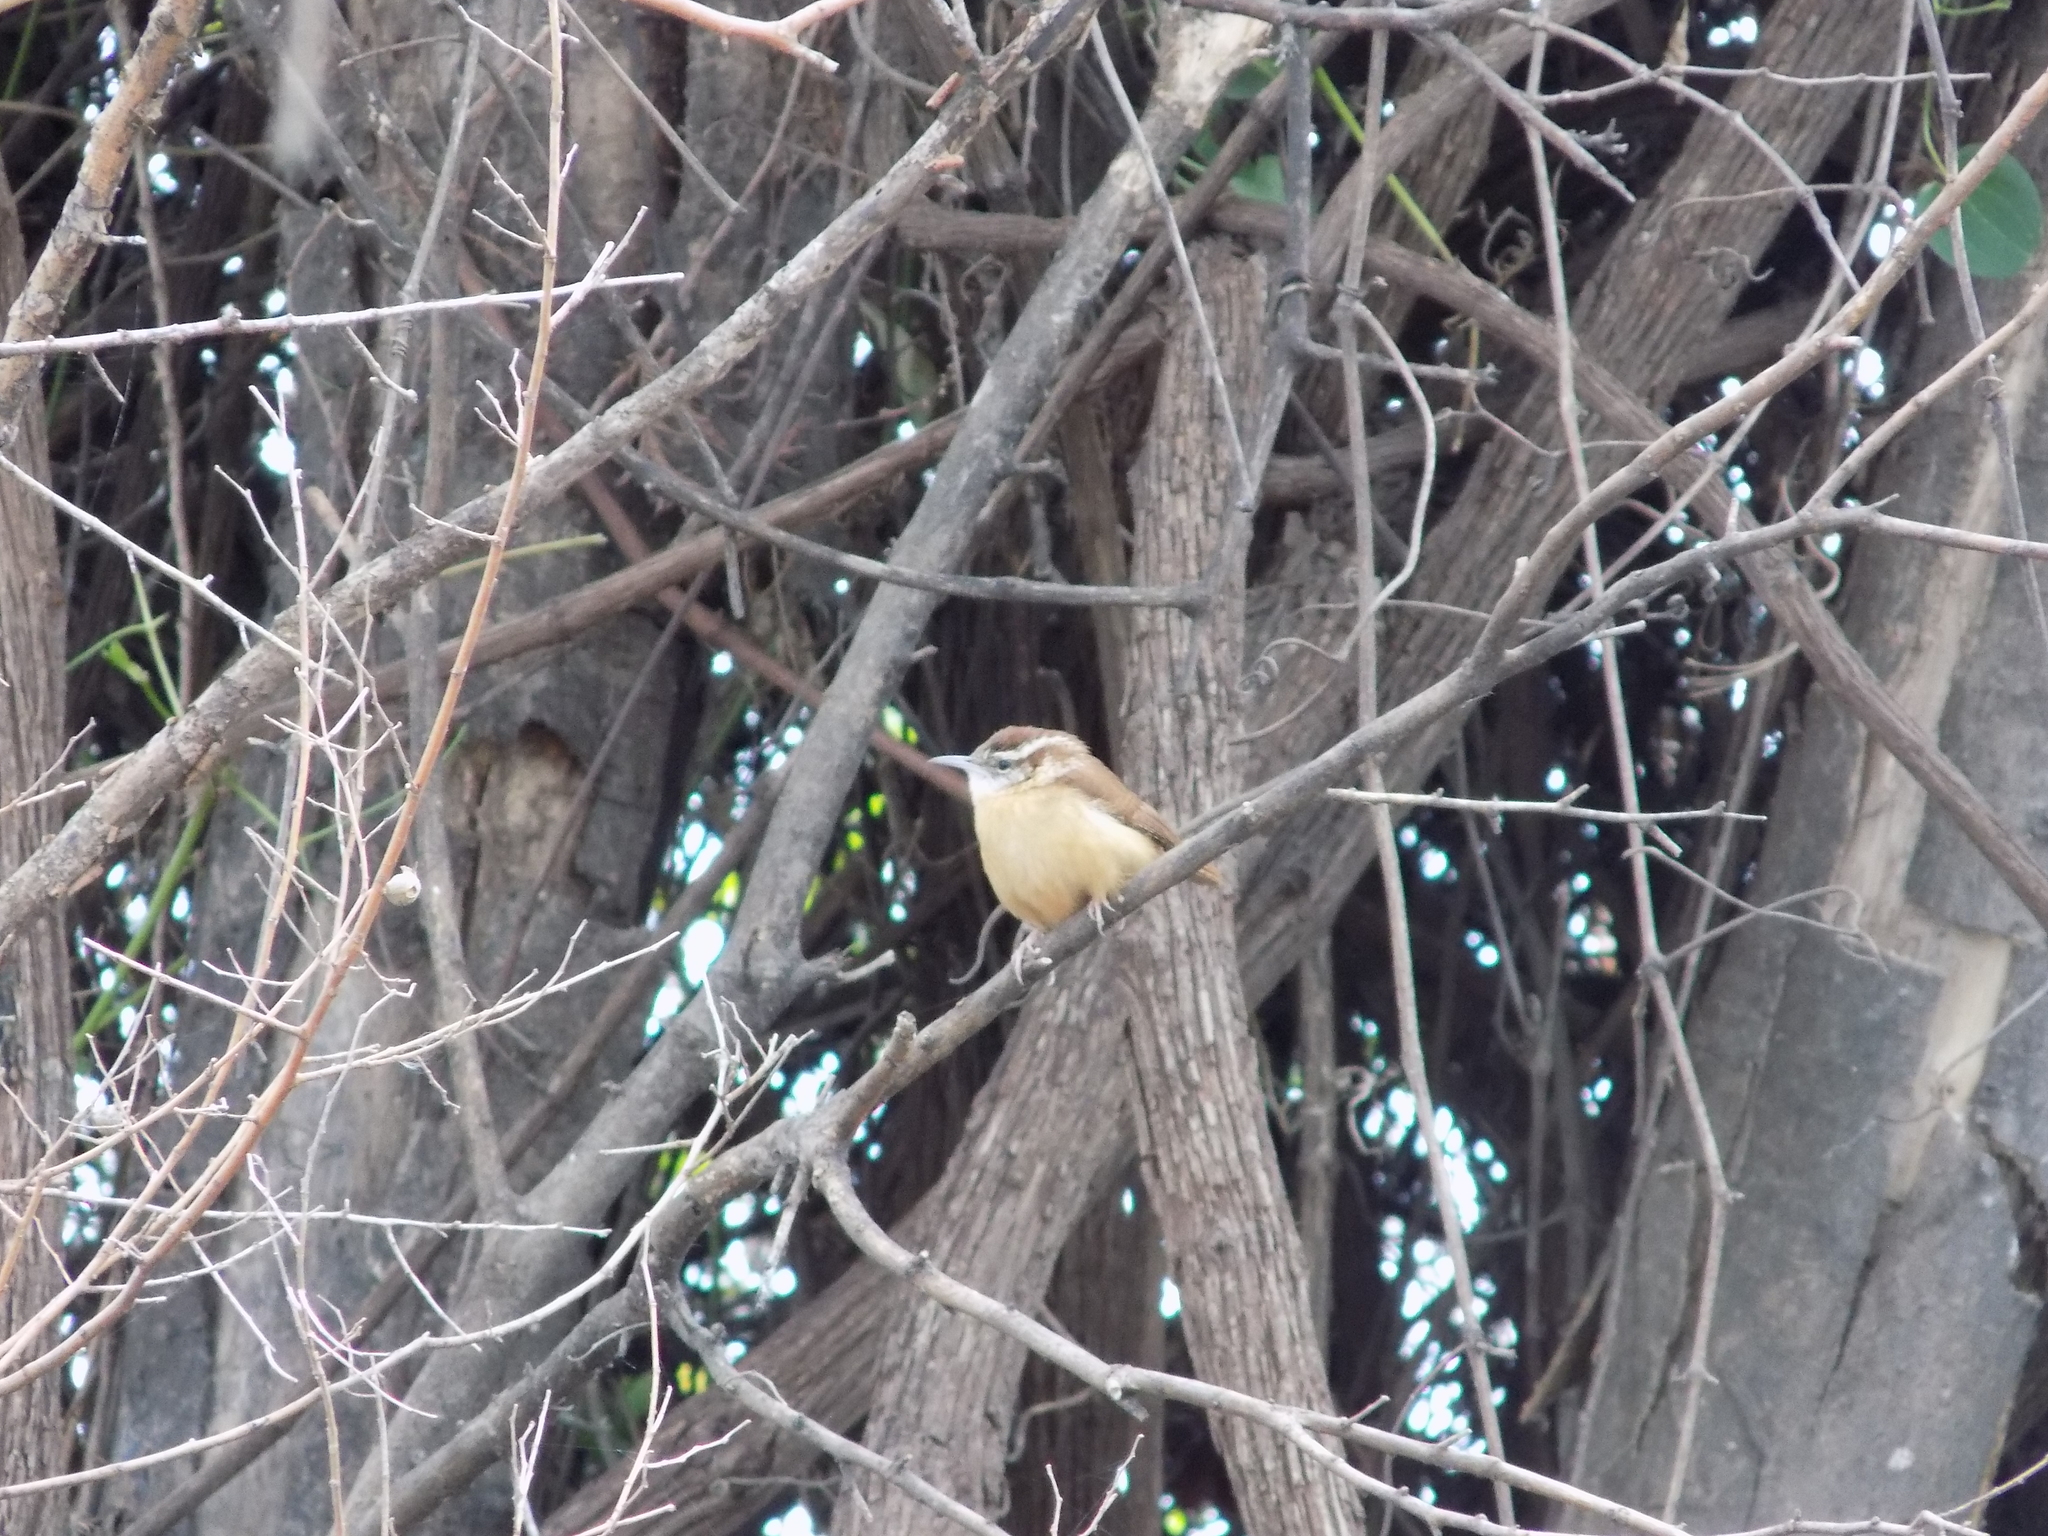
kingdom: Animalia
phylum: Chordata
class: Aves
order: Passeriformes
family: Troglodytidae
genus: Thryothorus
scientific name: Thryothorus ludovicianus
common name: Carolina wren
